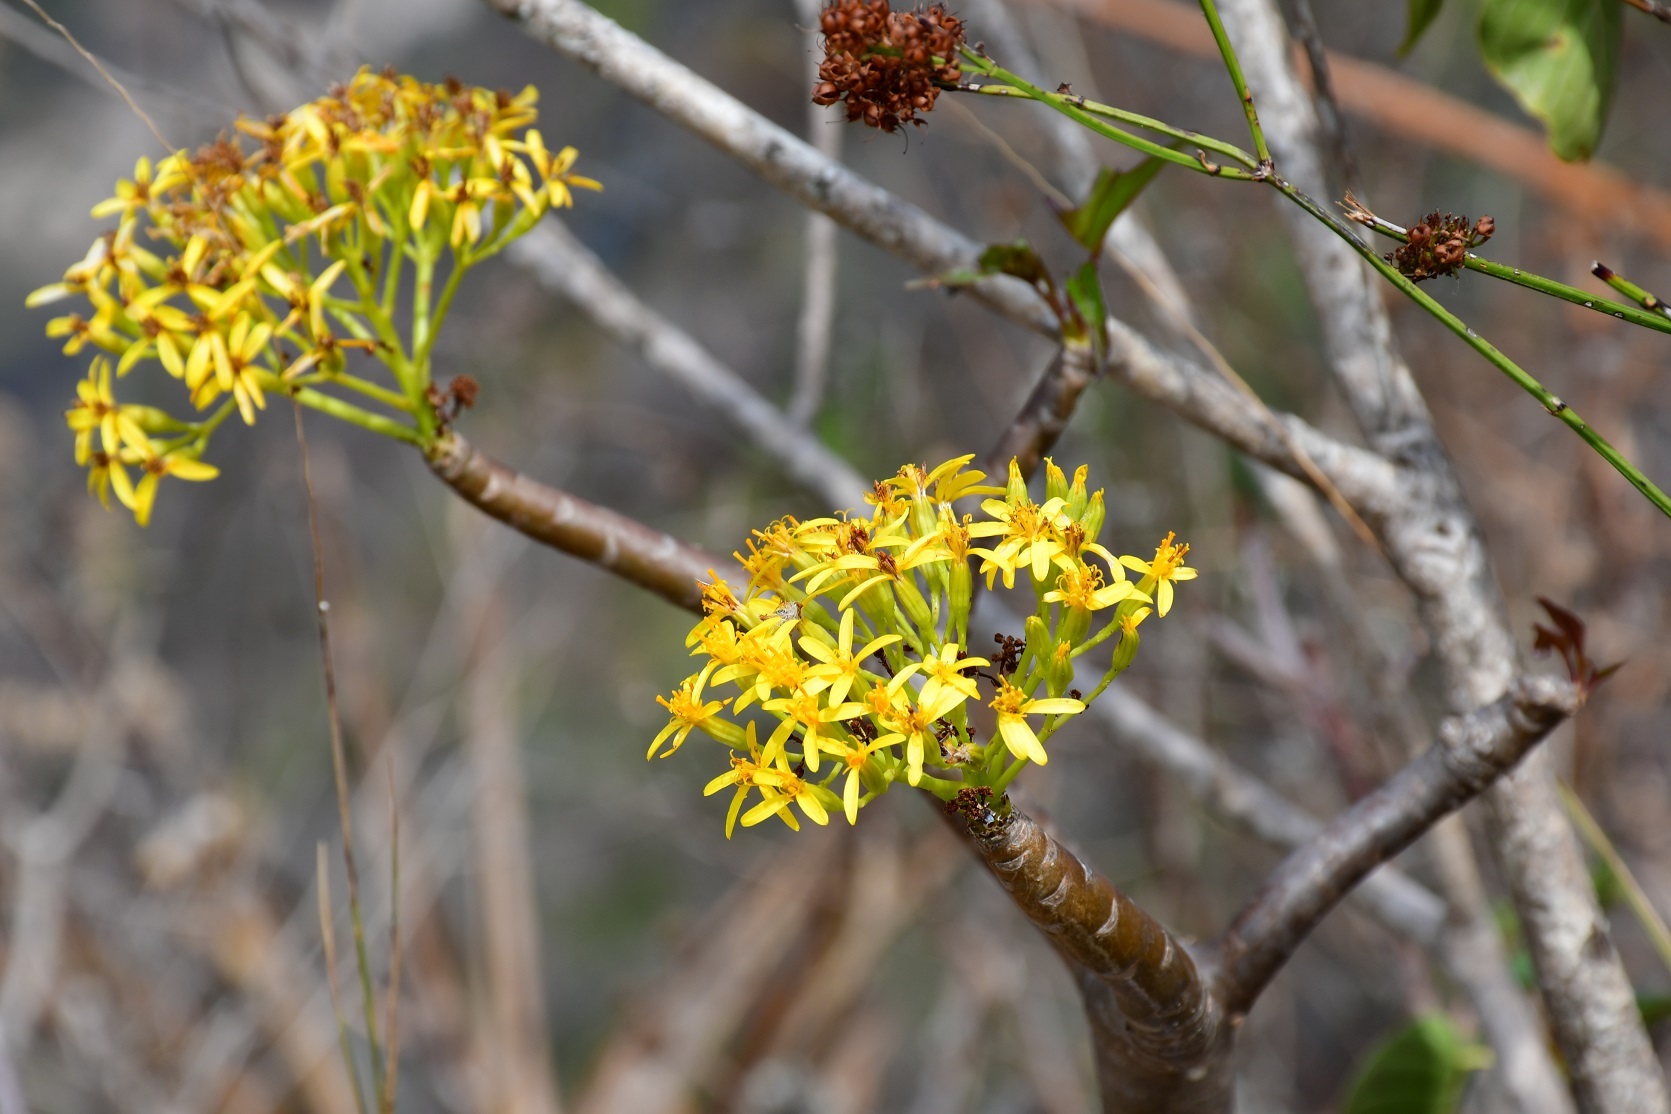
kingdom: Plantae
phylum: Tracheophyta
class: Magnoliopsida
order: Asterales
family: Asteraceae
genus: Pittocaulon
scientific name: Pittocaulon velatum
